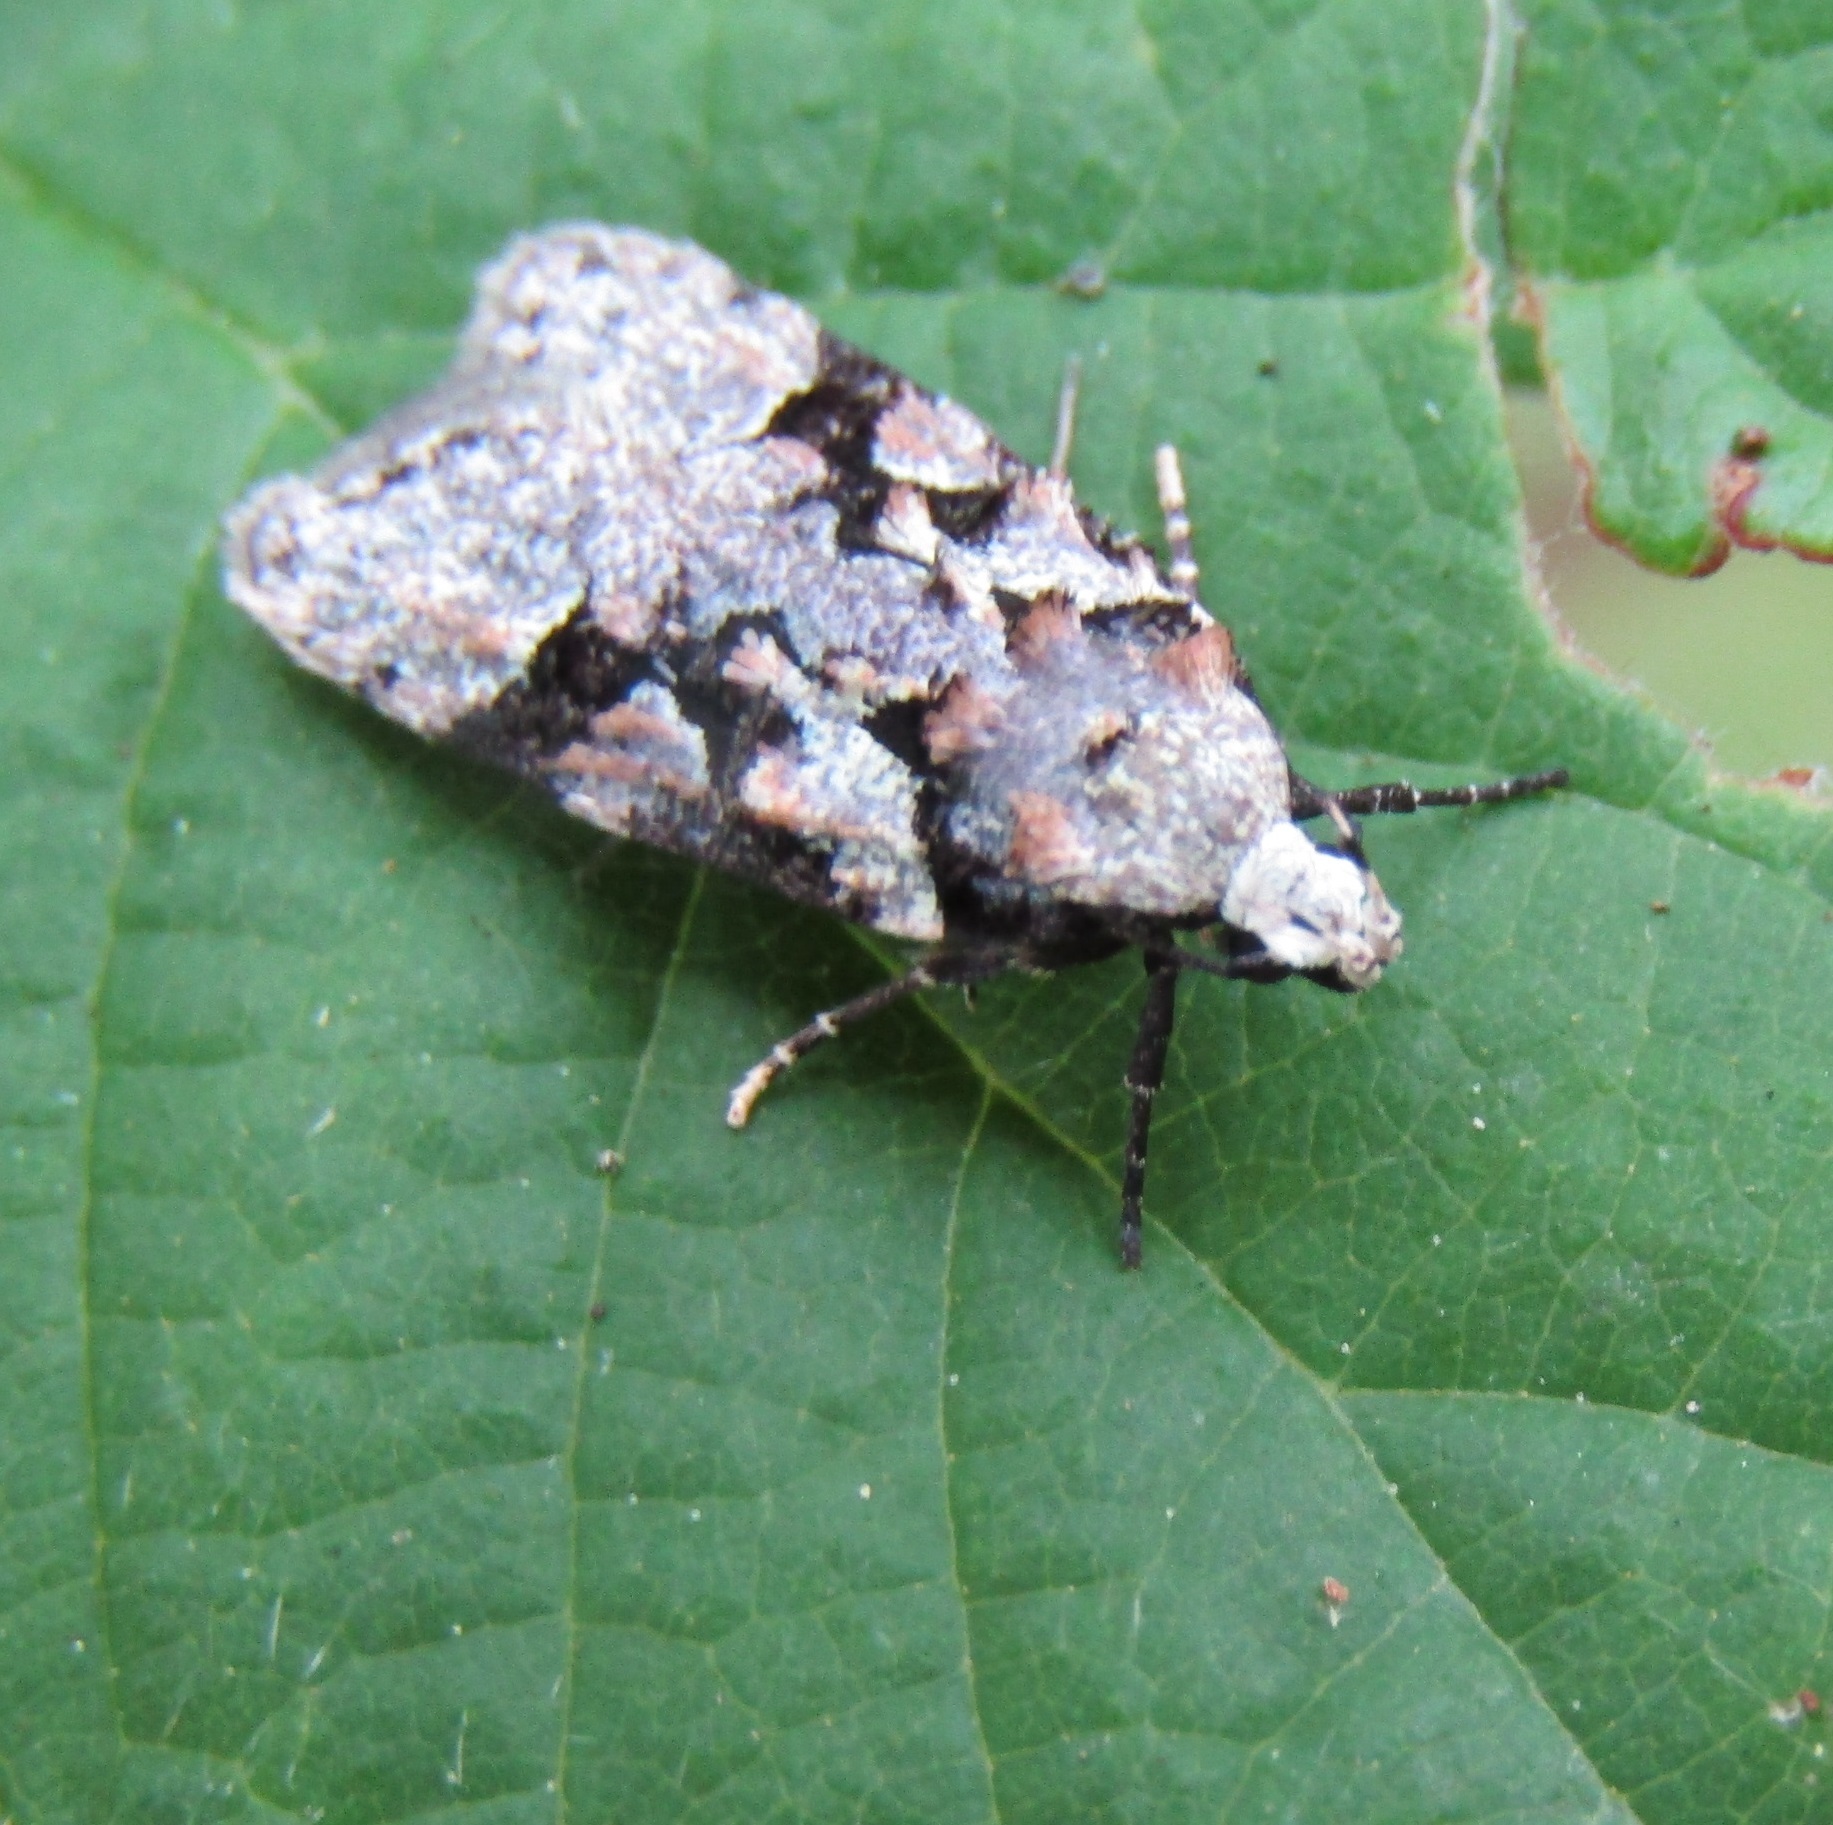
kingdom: Animalia
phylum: Arthropoda
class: Insecta
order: Lepidoptera
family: Oecophoridae
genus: Izatha
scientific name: Izatha epiphanes
